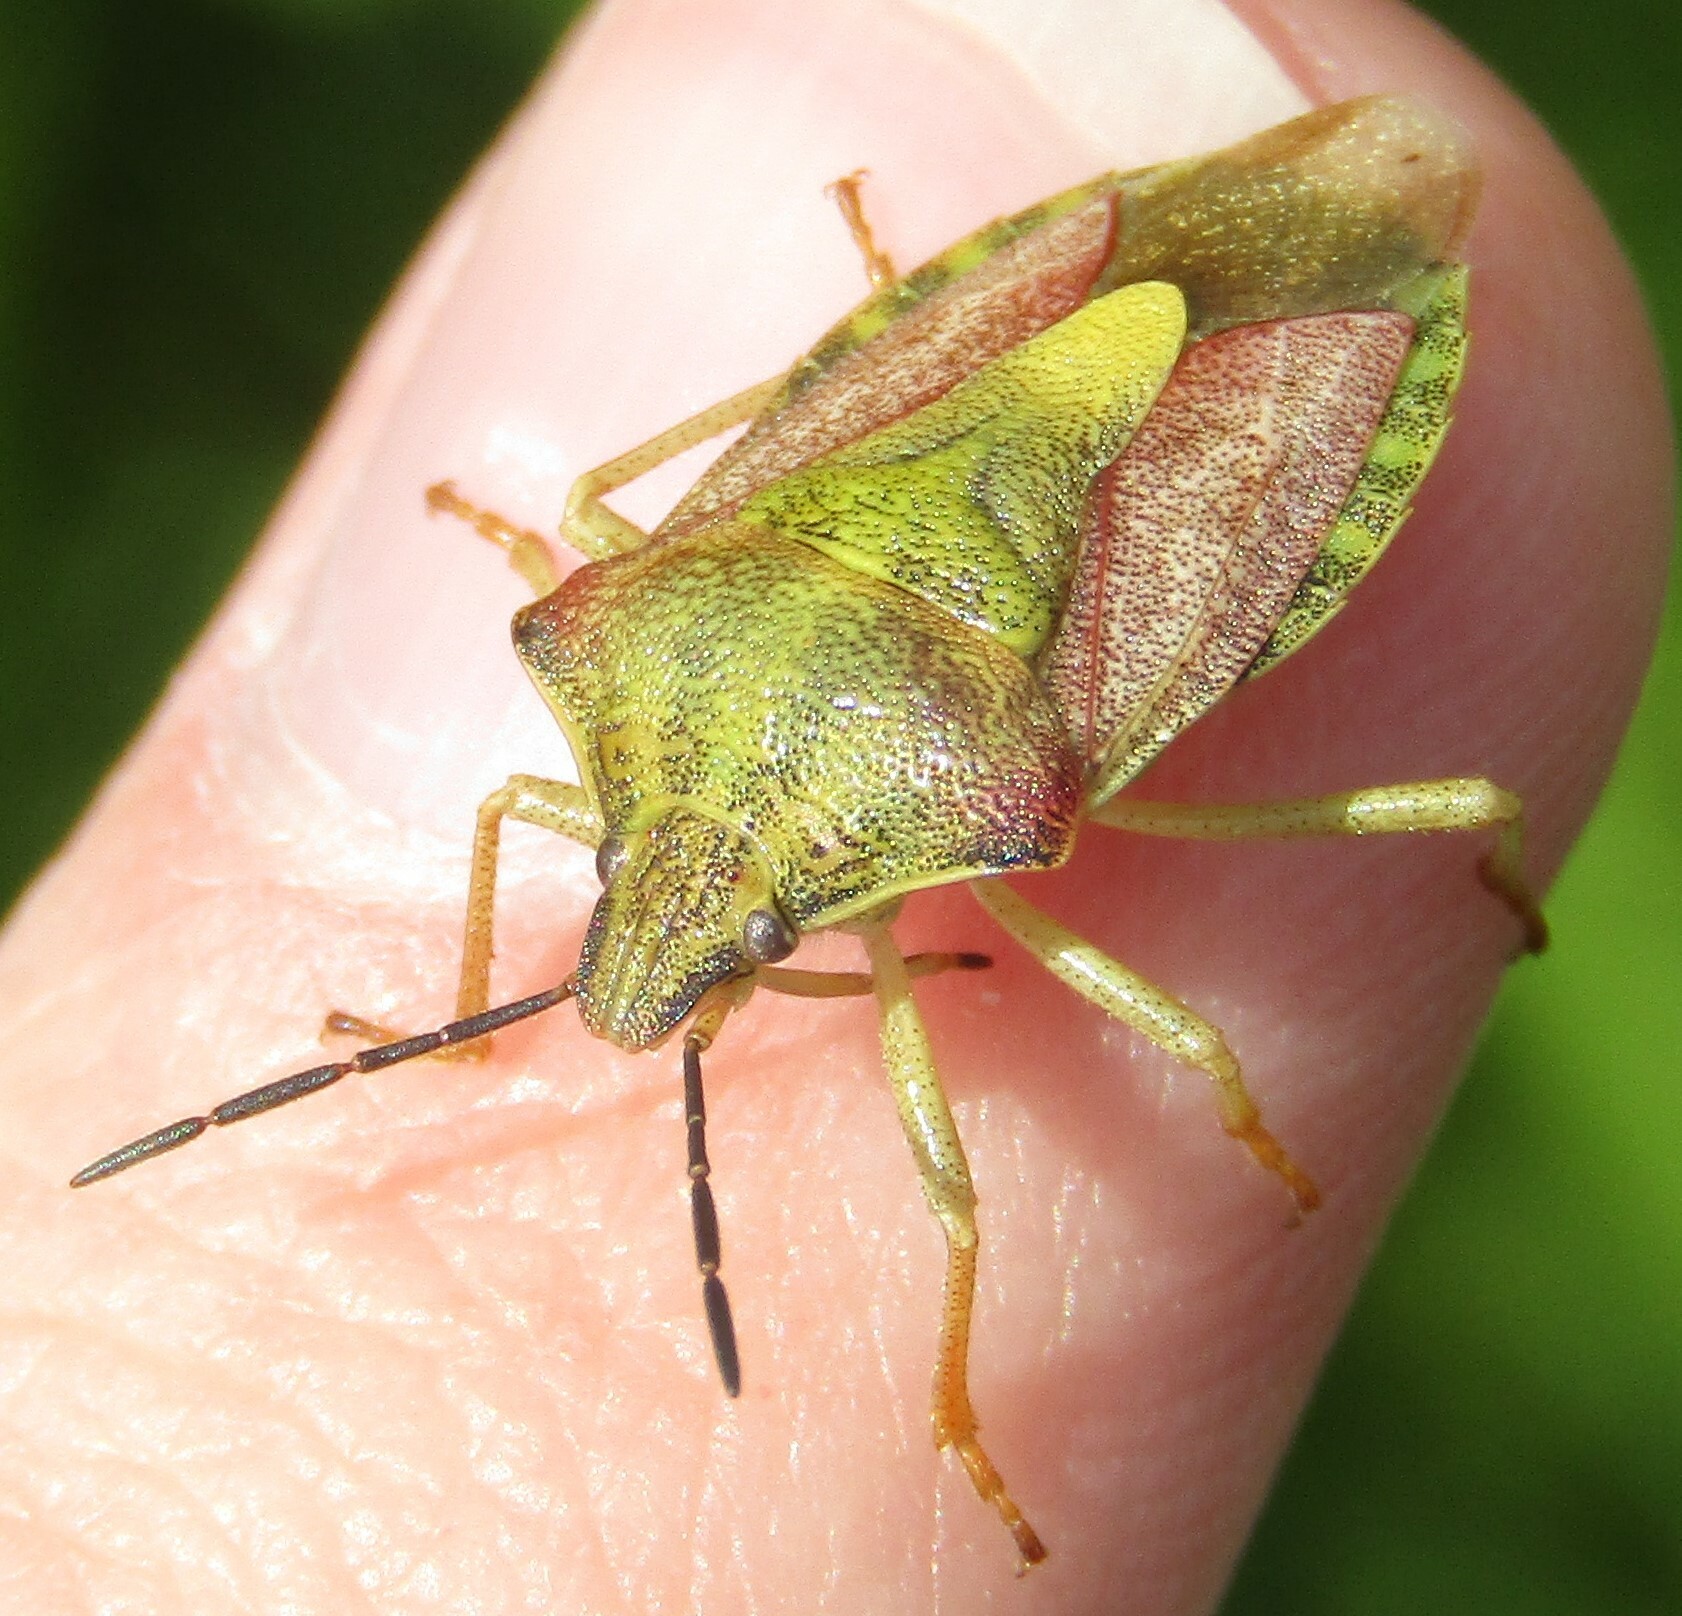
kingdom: Animalia
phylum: Arthropoda
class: Insecta
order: Hemiptera
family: Pentatomidae
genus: Carpocoris
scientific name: Carpocoris purpureipennis
